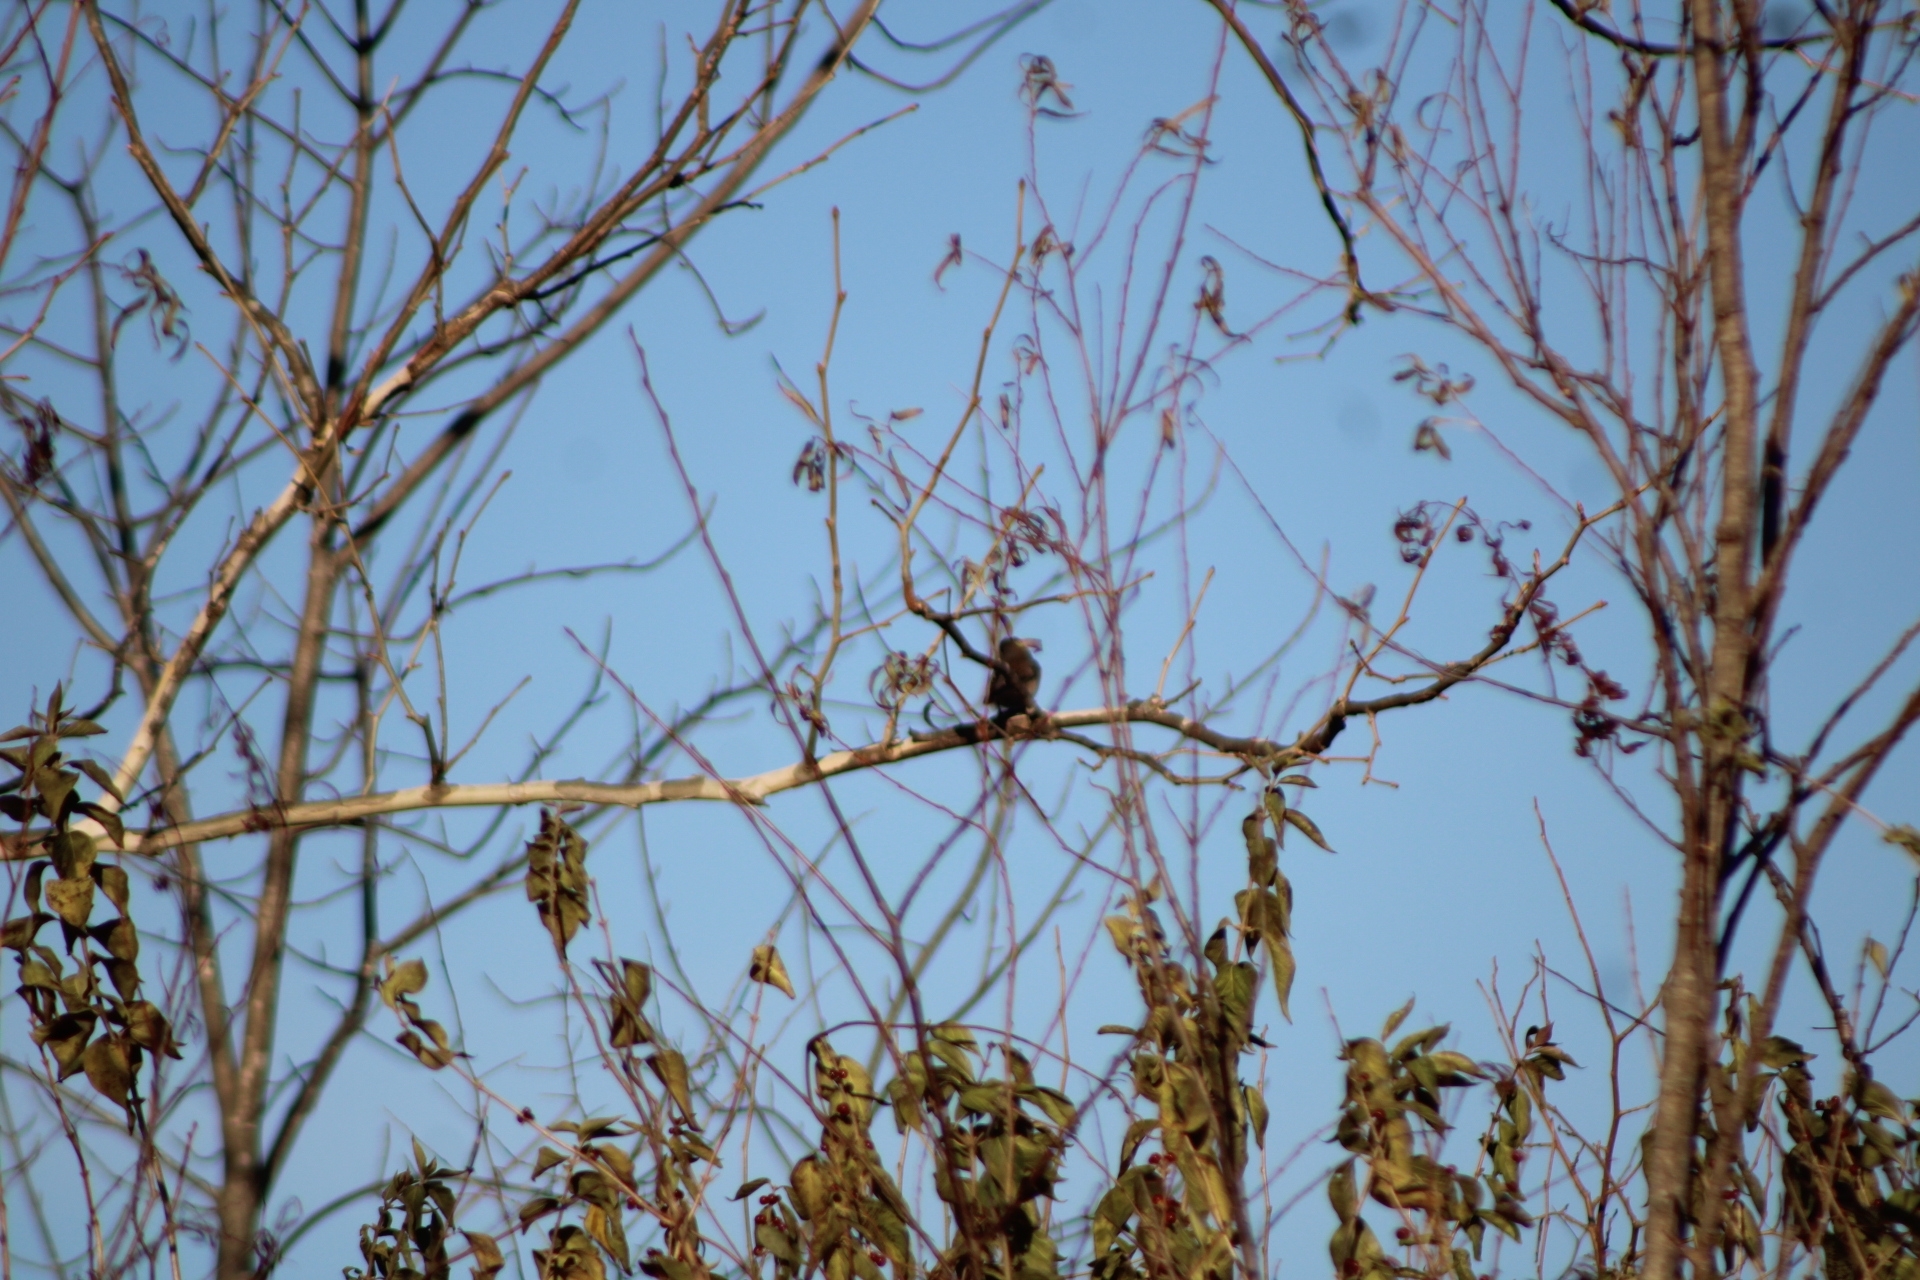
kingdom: Animalia
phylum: Chordata
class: Aves
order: Passeriformes
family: Passerellidae
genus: Junco
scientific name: Junco hyemalis
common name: Dark-eyed junco
